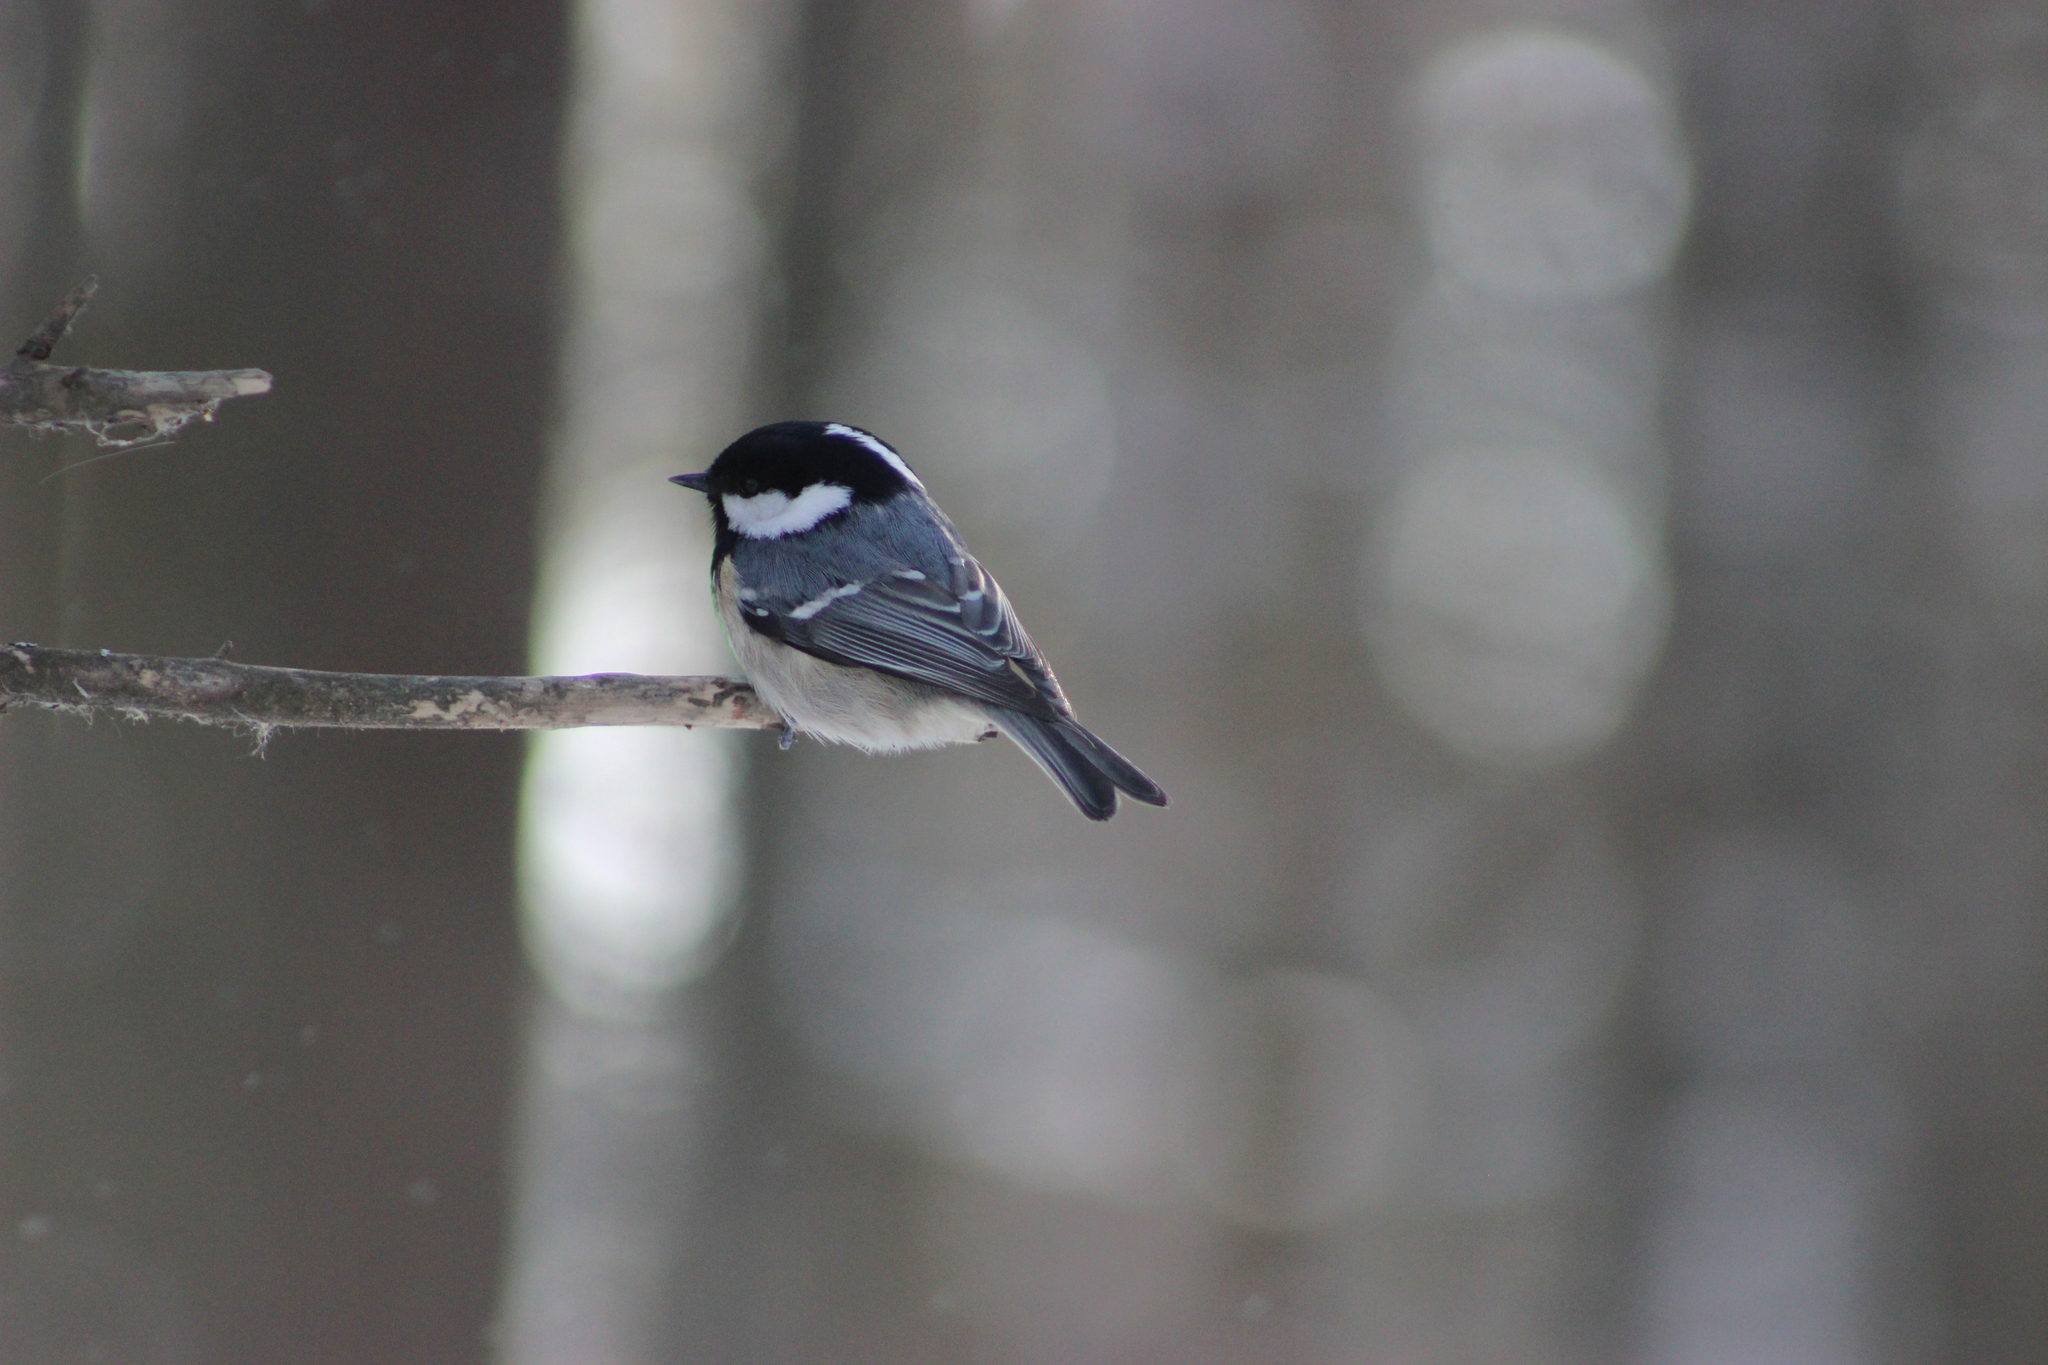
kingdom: Animalia
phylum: Chordata
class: Aves
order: Passeriformes
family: Paridae
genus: Periparus
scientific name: Periparus ater
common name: Coal tit
